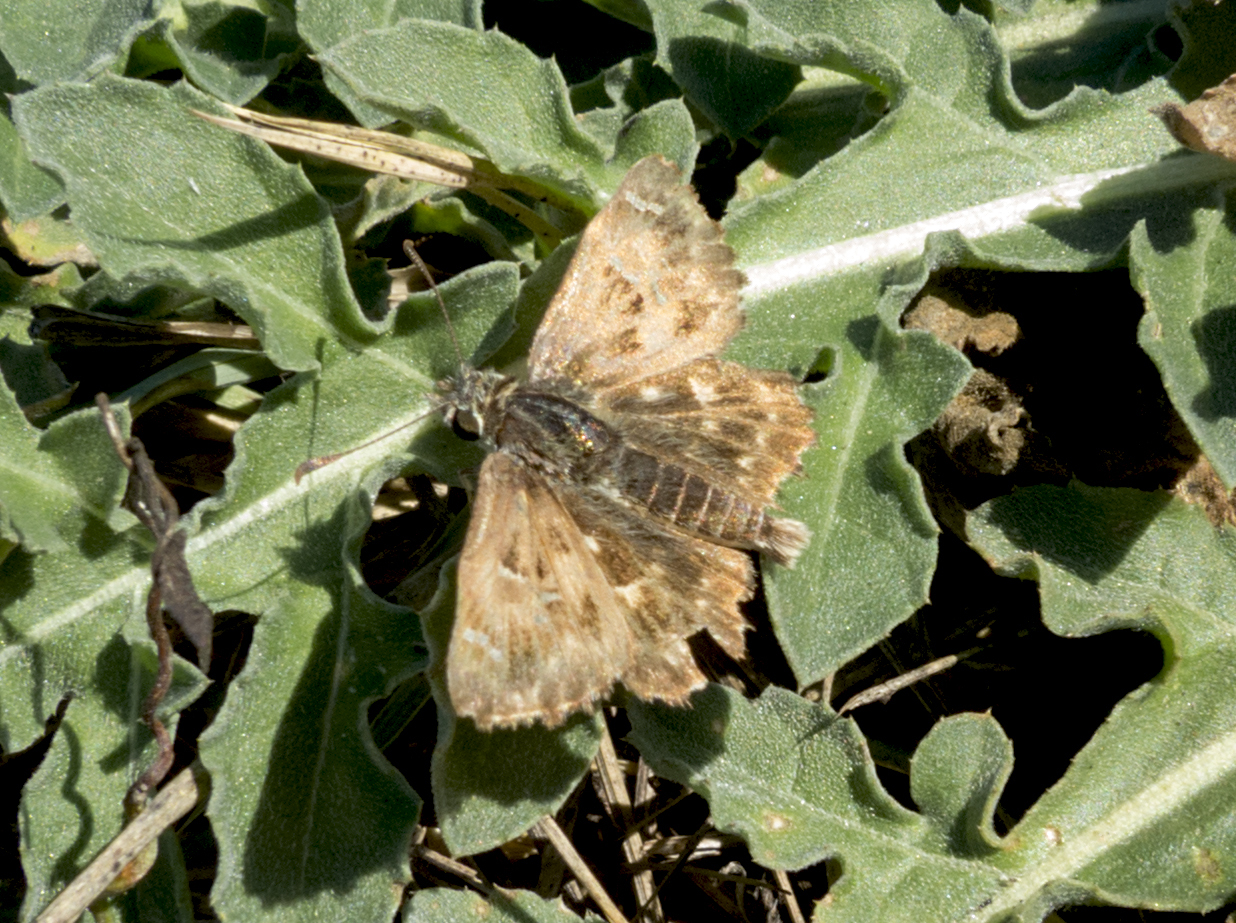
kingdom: Animalia
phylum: Arthropoda
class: Insecta
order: Lepidoptera
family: Hesperiidae
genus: Carcharodus
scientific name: Carcharodus alceae
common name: Mallow skipper
